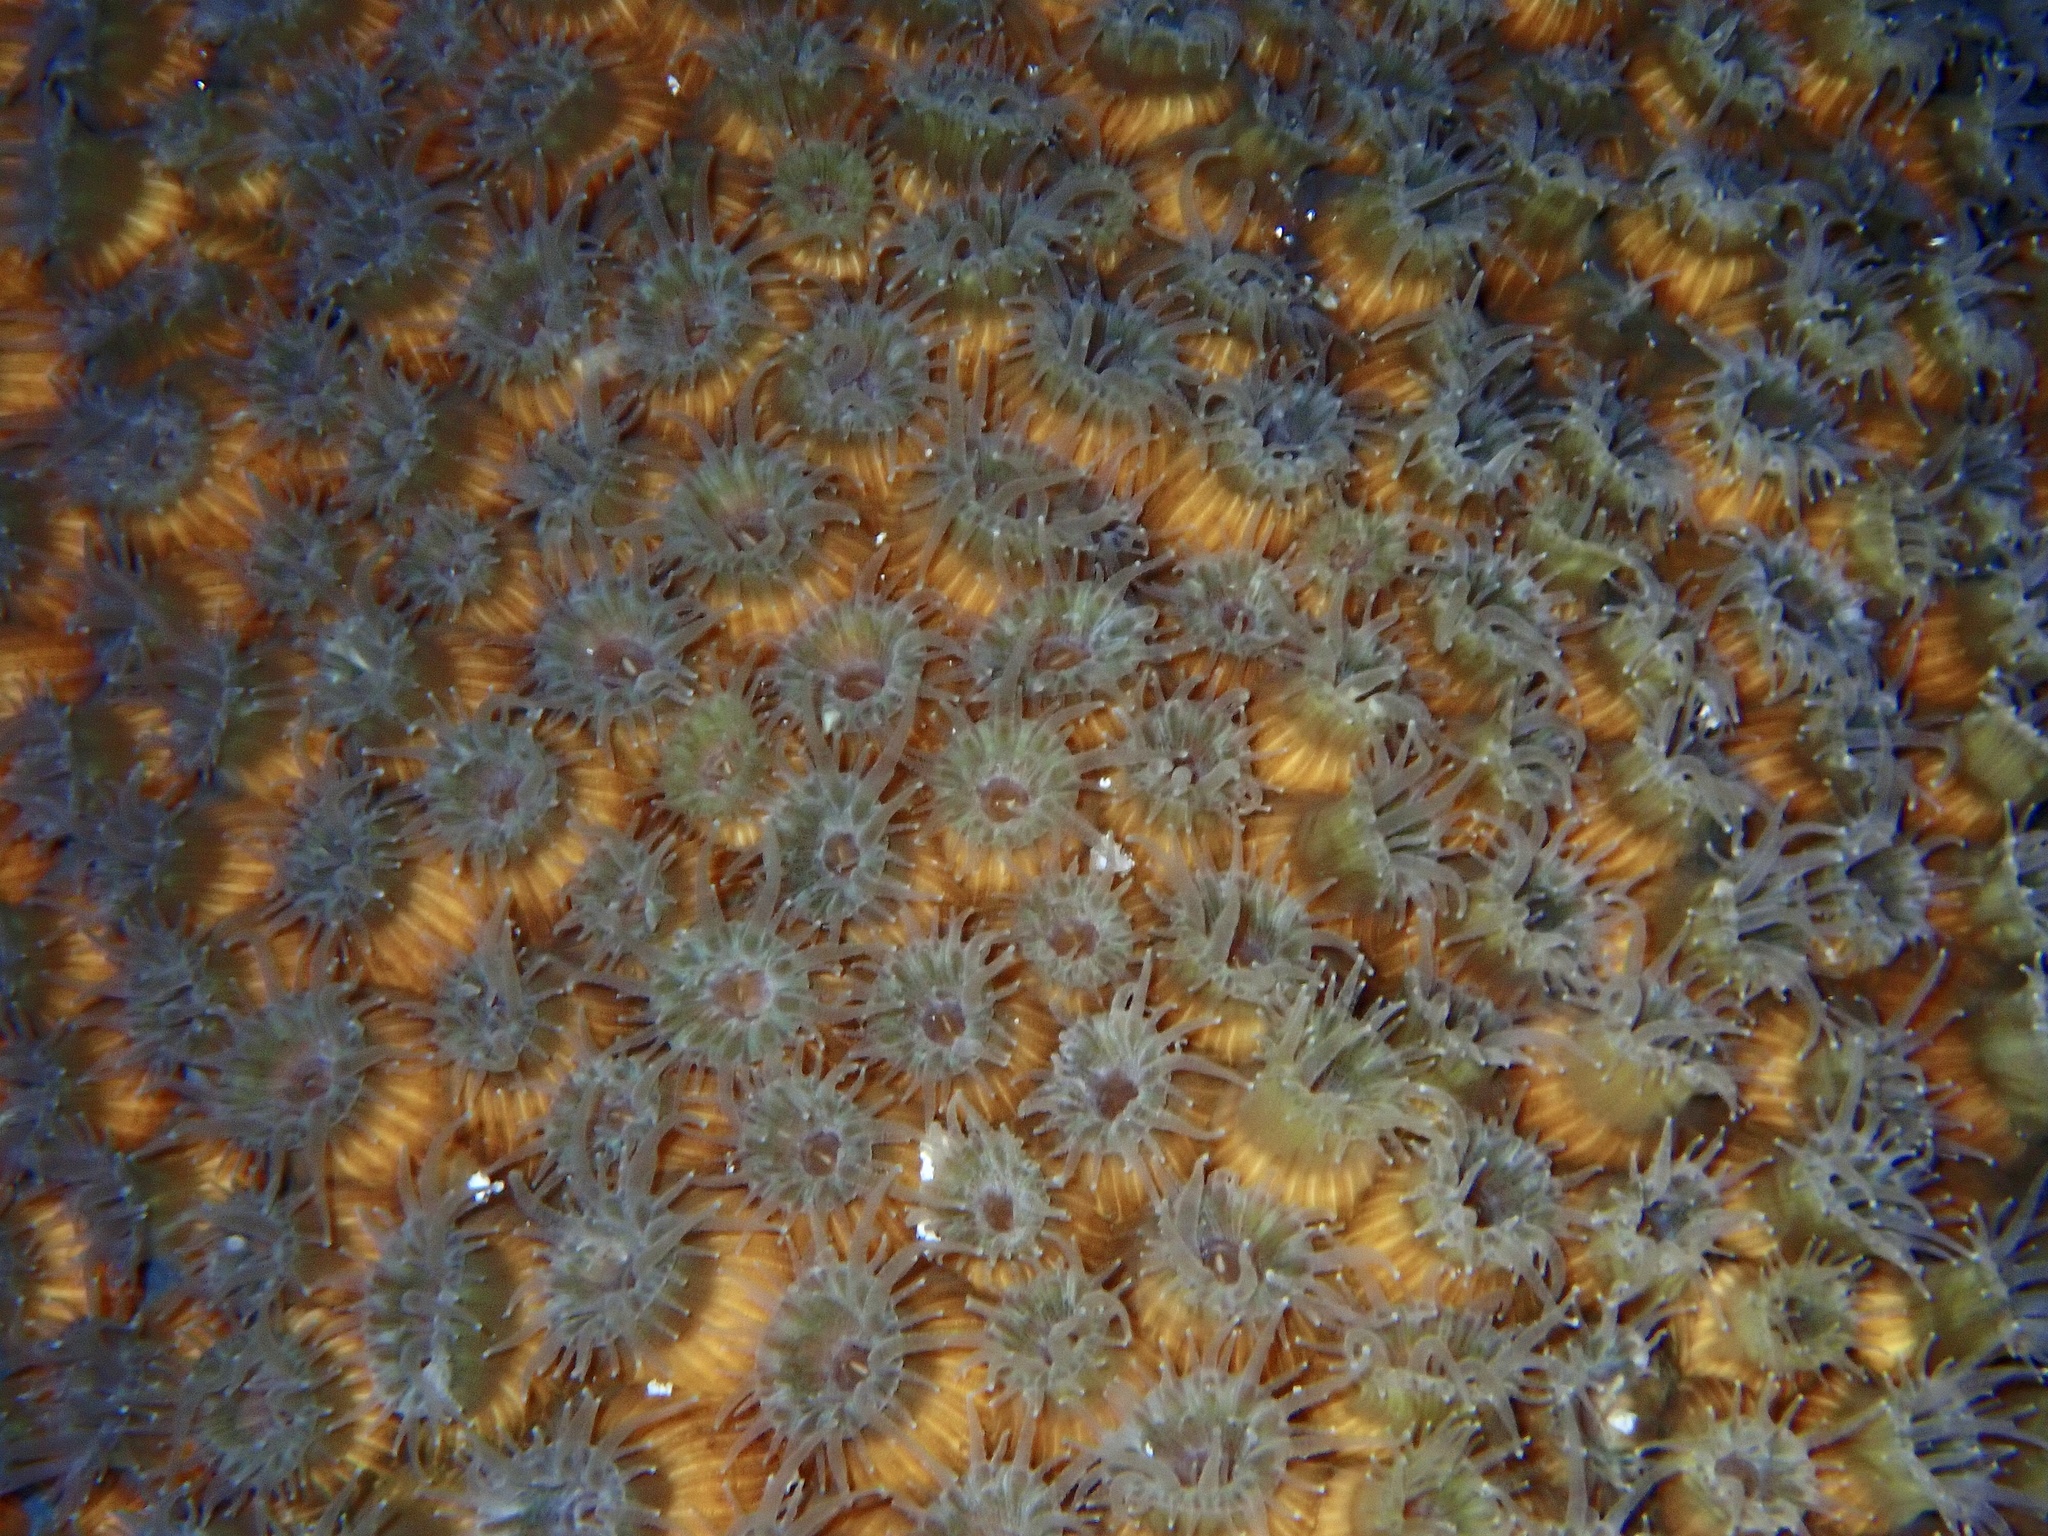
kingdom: Animalia
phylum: Cnidaria
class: Anthozoa
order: Scleractinia
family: Montastraeidae
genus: Montastraea
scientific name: Montastraea cavernosa
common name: Great star coral
